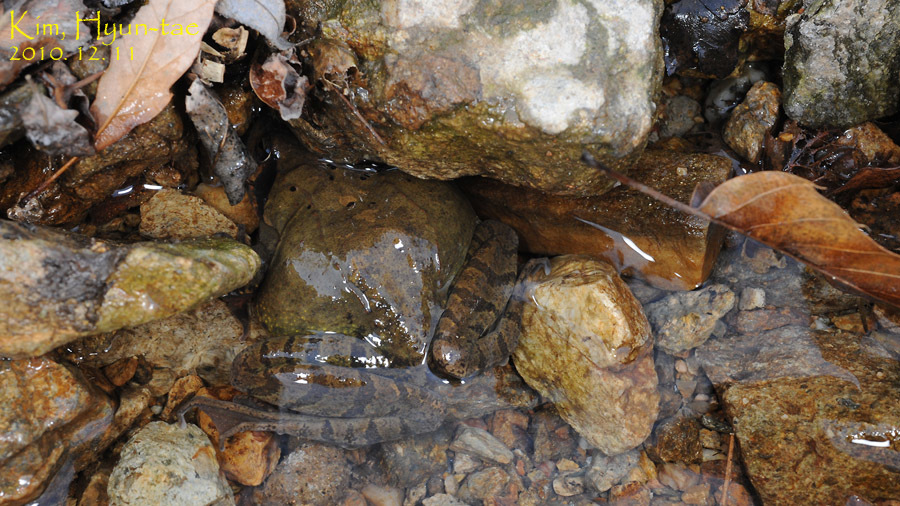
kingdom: Animalia
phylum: Chordata
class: Amphibia
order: Anura
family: Ranidae
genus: Rana
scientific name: Rana uenoi
